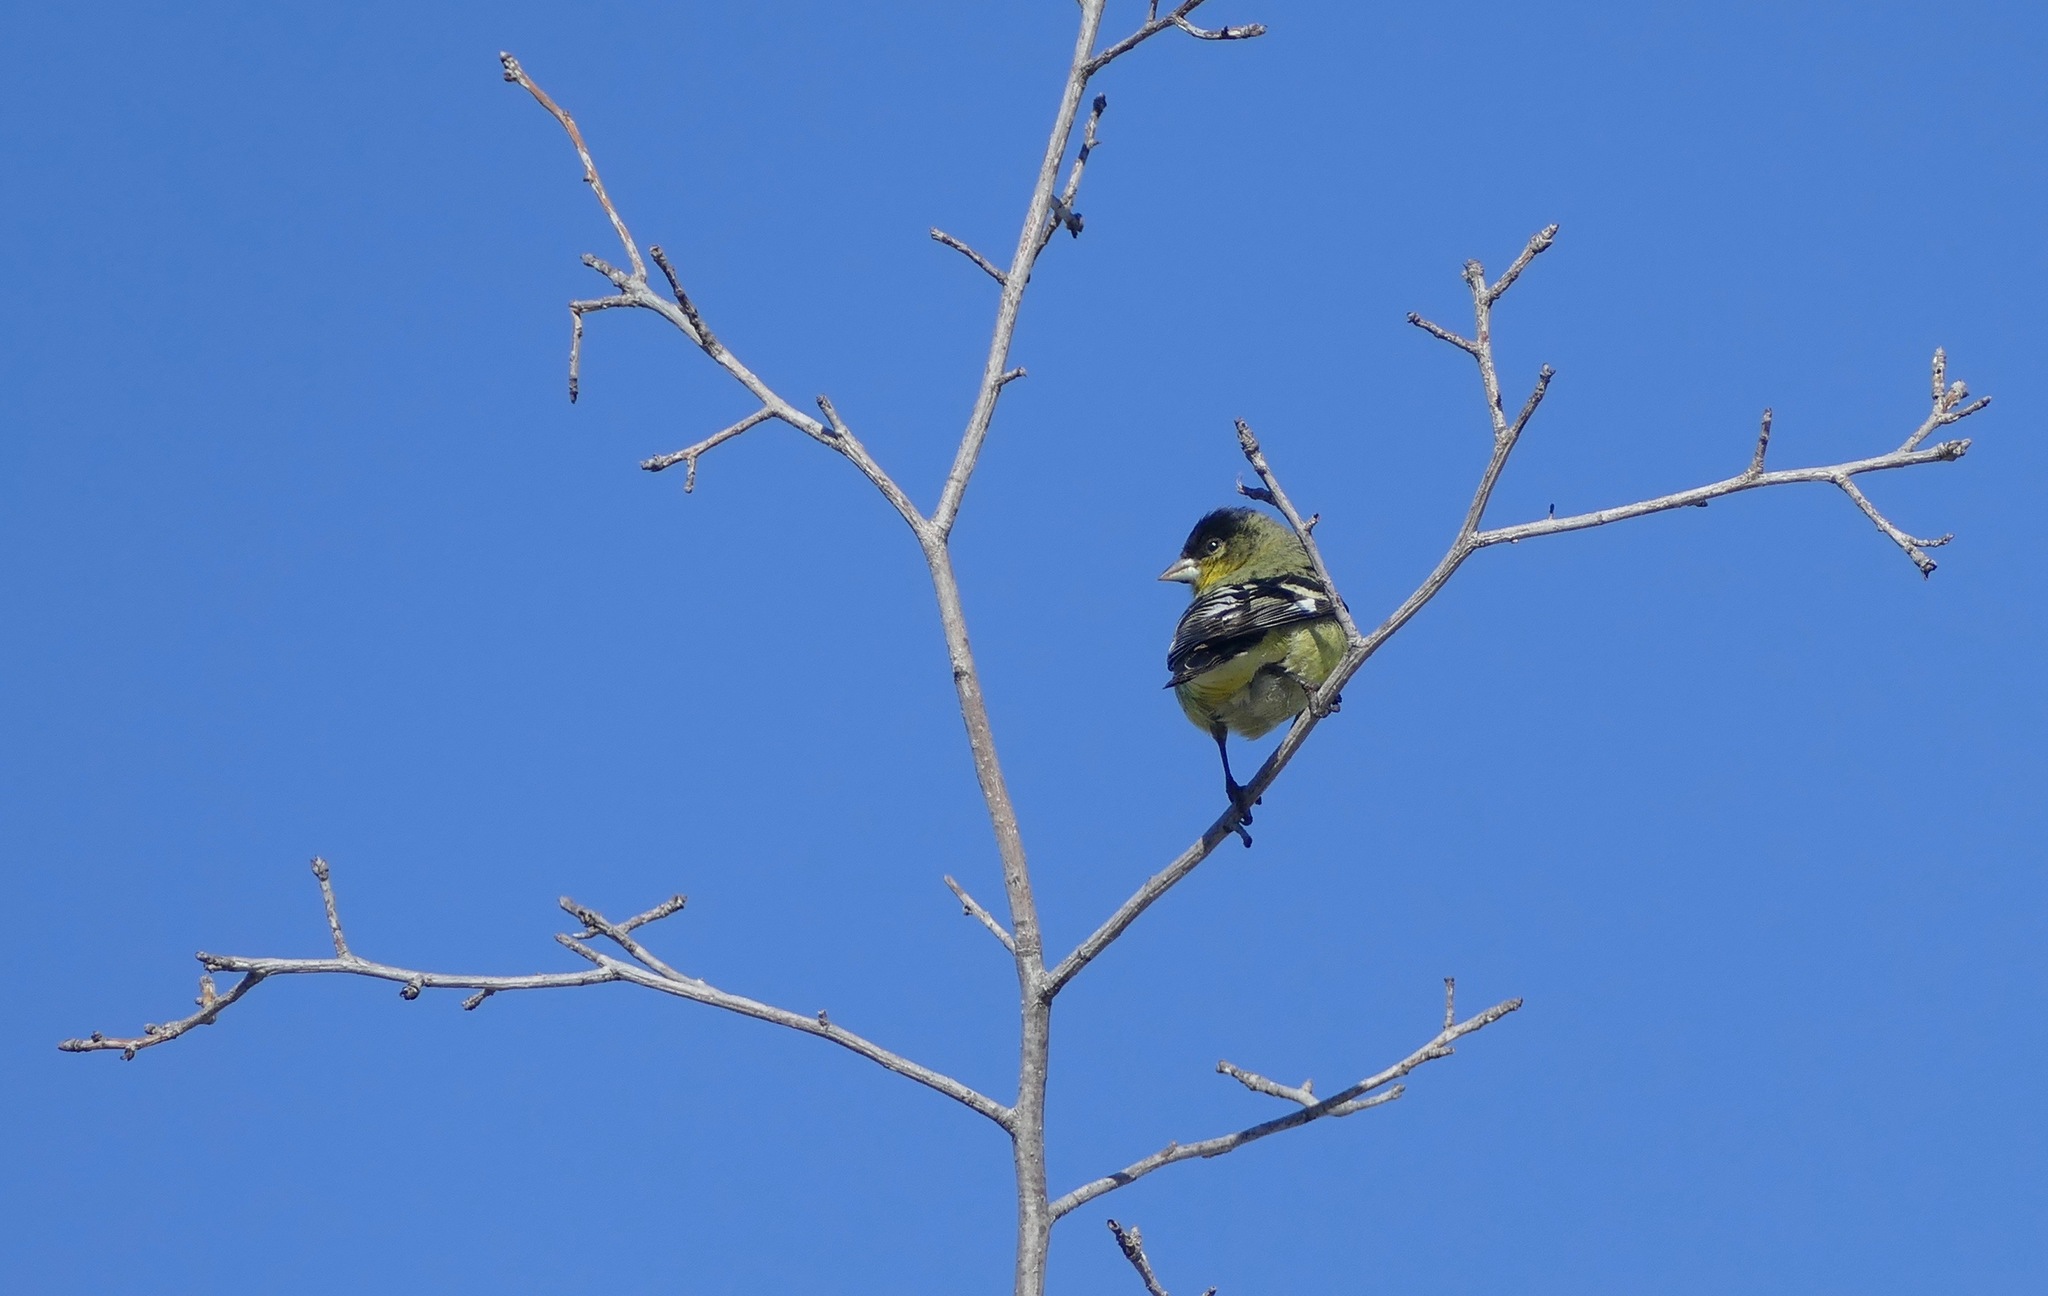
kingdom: Animalia
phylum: Chordata
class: Aves
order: Passeriformes
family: Fringillidae
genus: Spinus
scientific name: Spinus psaltria
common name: Lesser goldfinch
